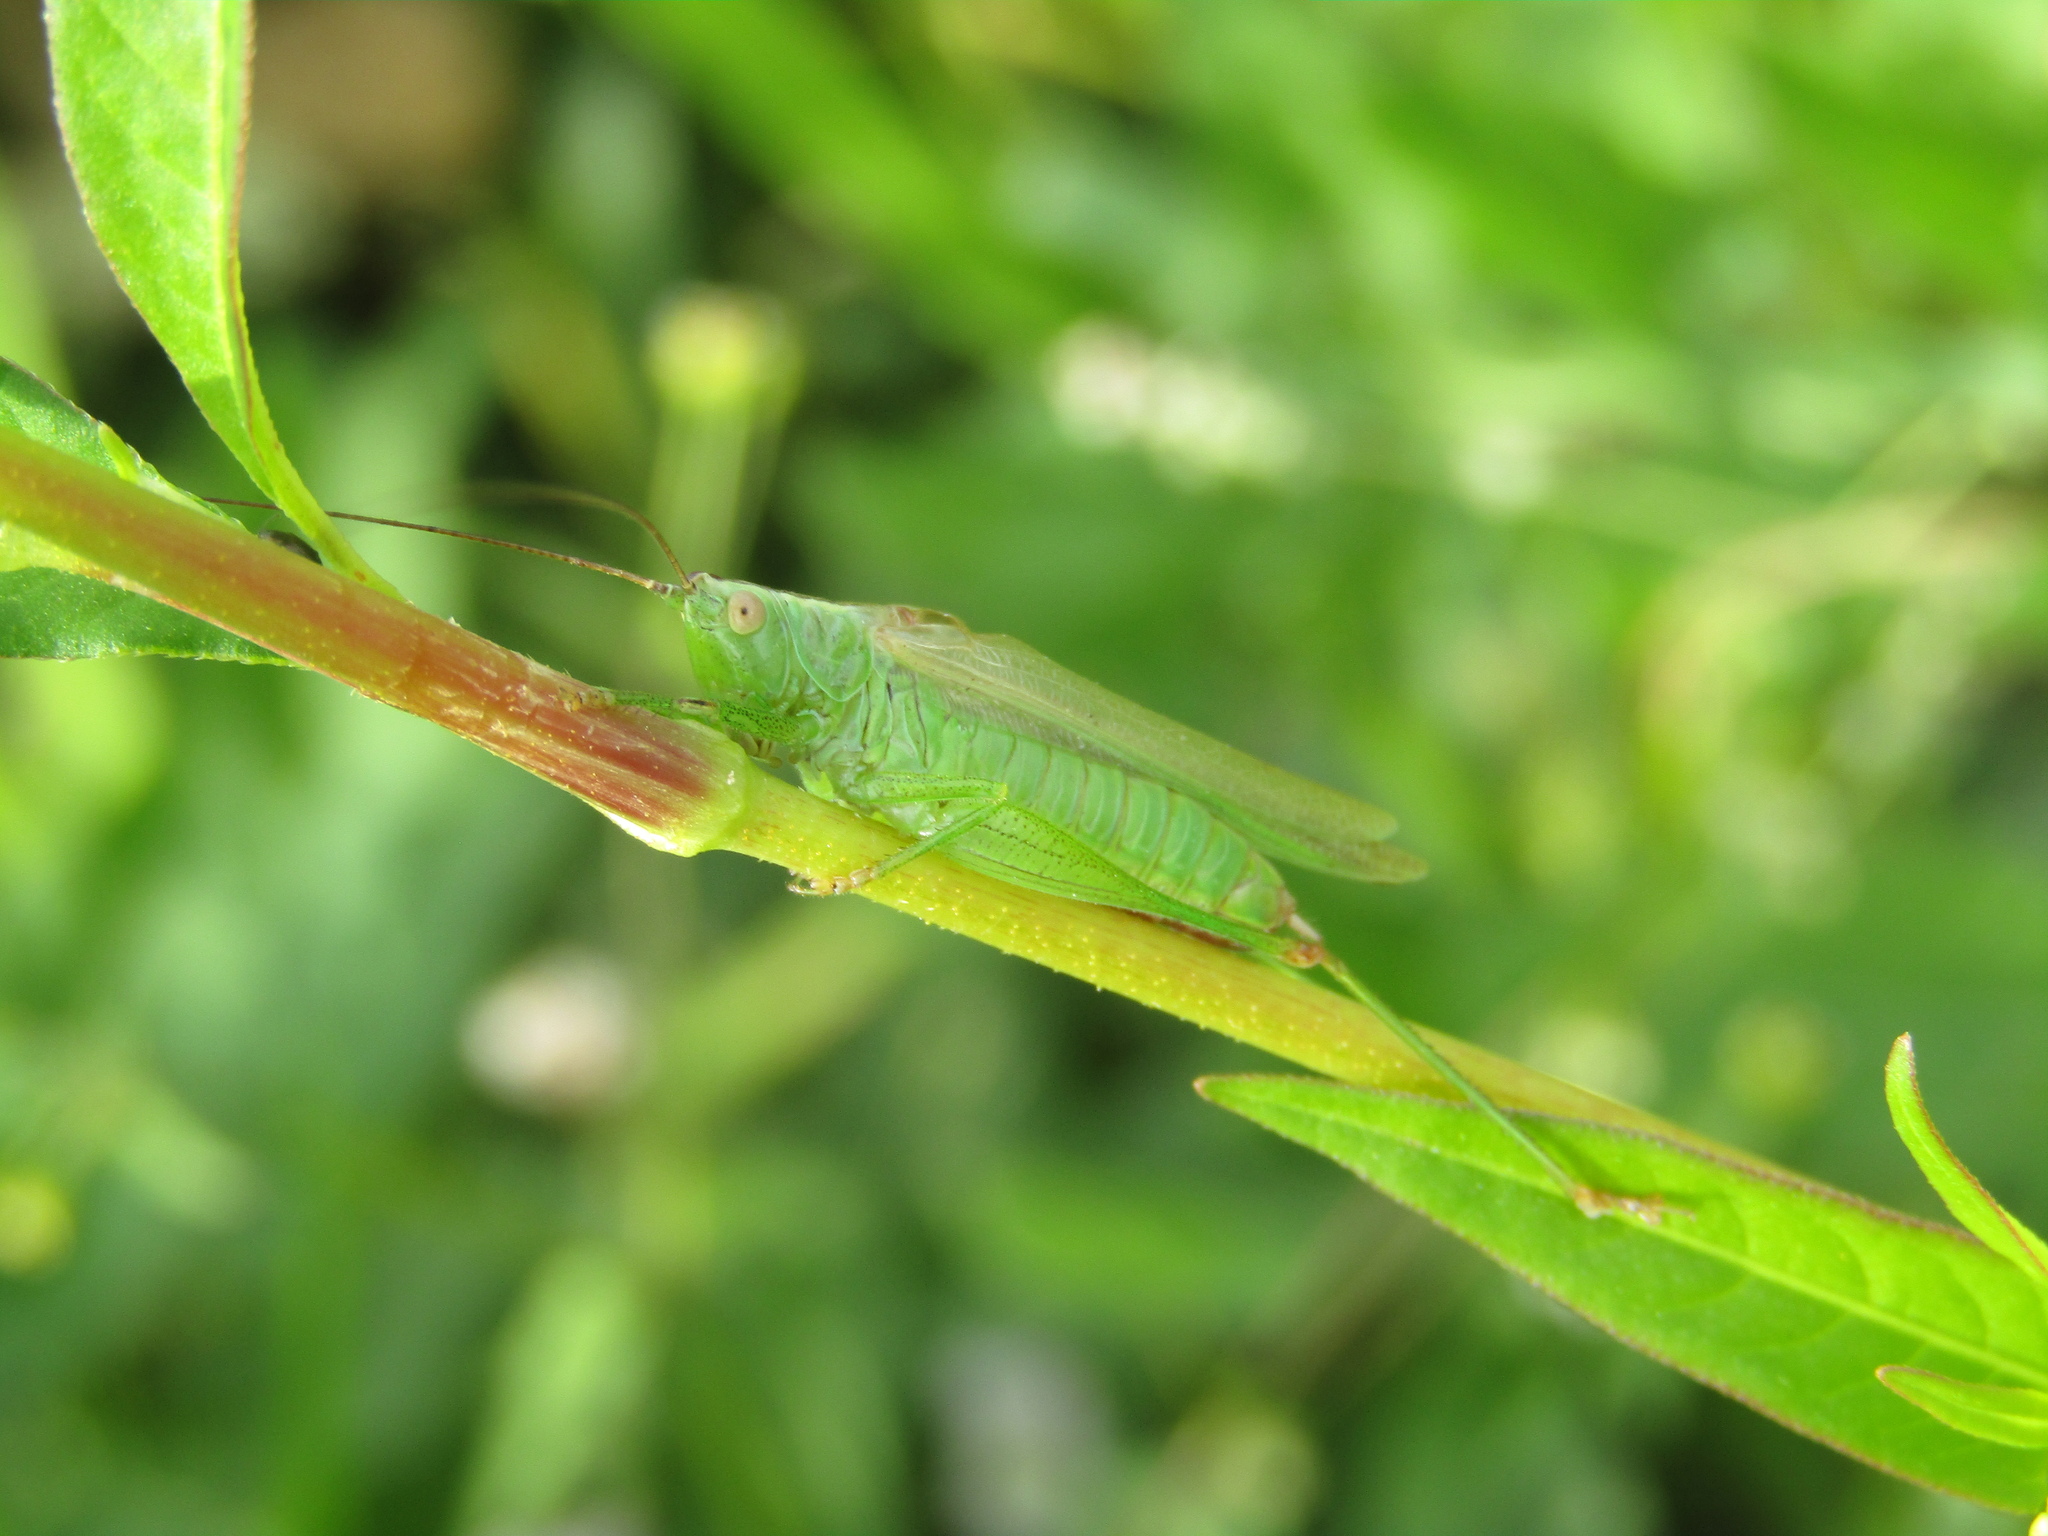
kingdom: Animalia
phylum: Arthropoda
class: Insecta
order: Orthoptera
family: Tettigoniidae
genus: Conocephalus
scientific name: Conocephalus fuscus
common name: Long-winged conehead
